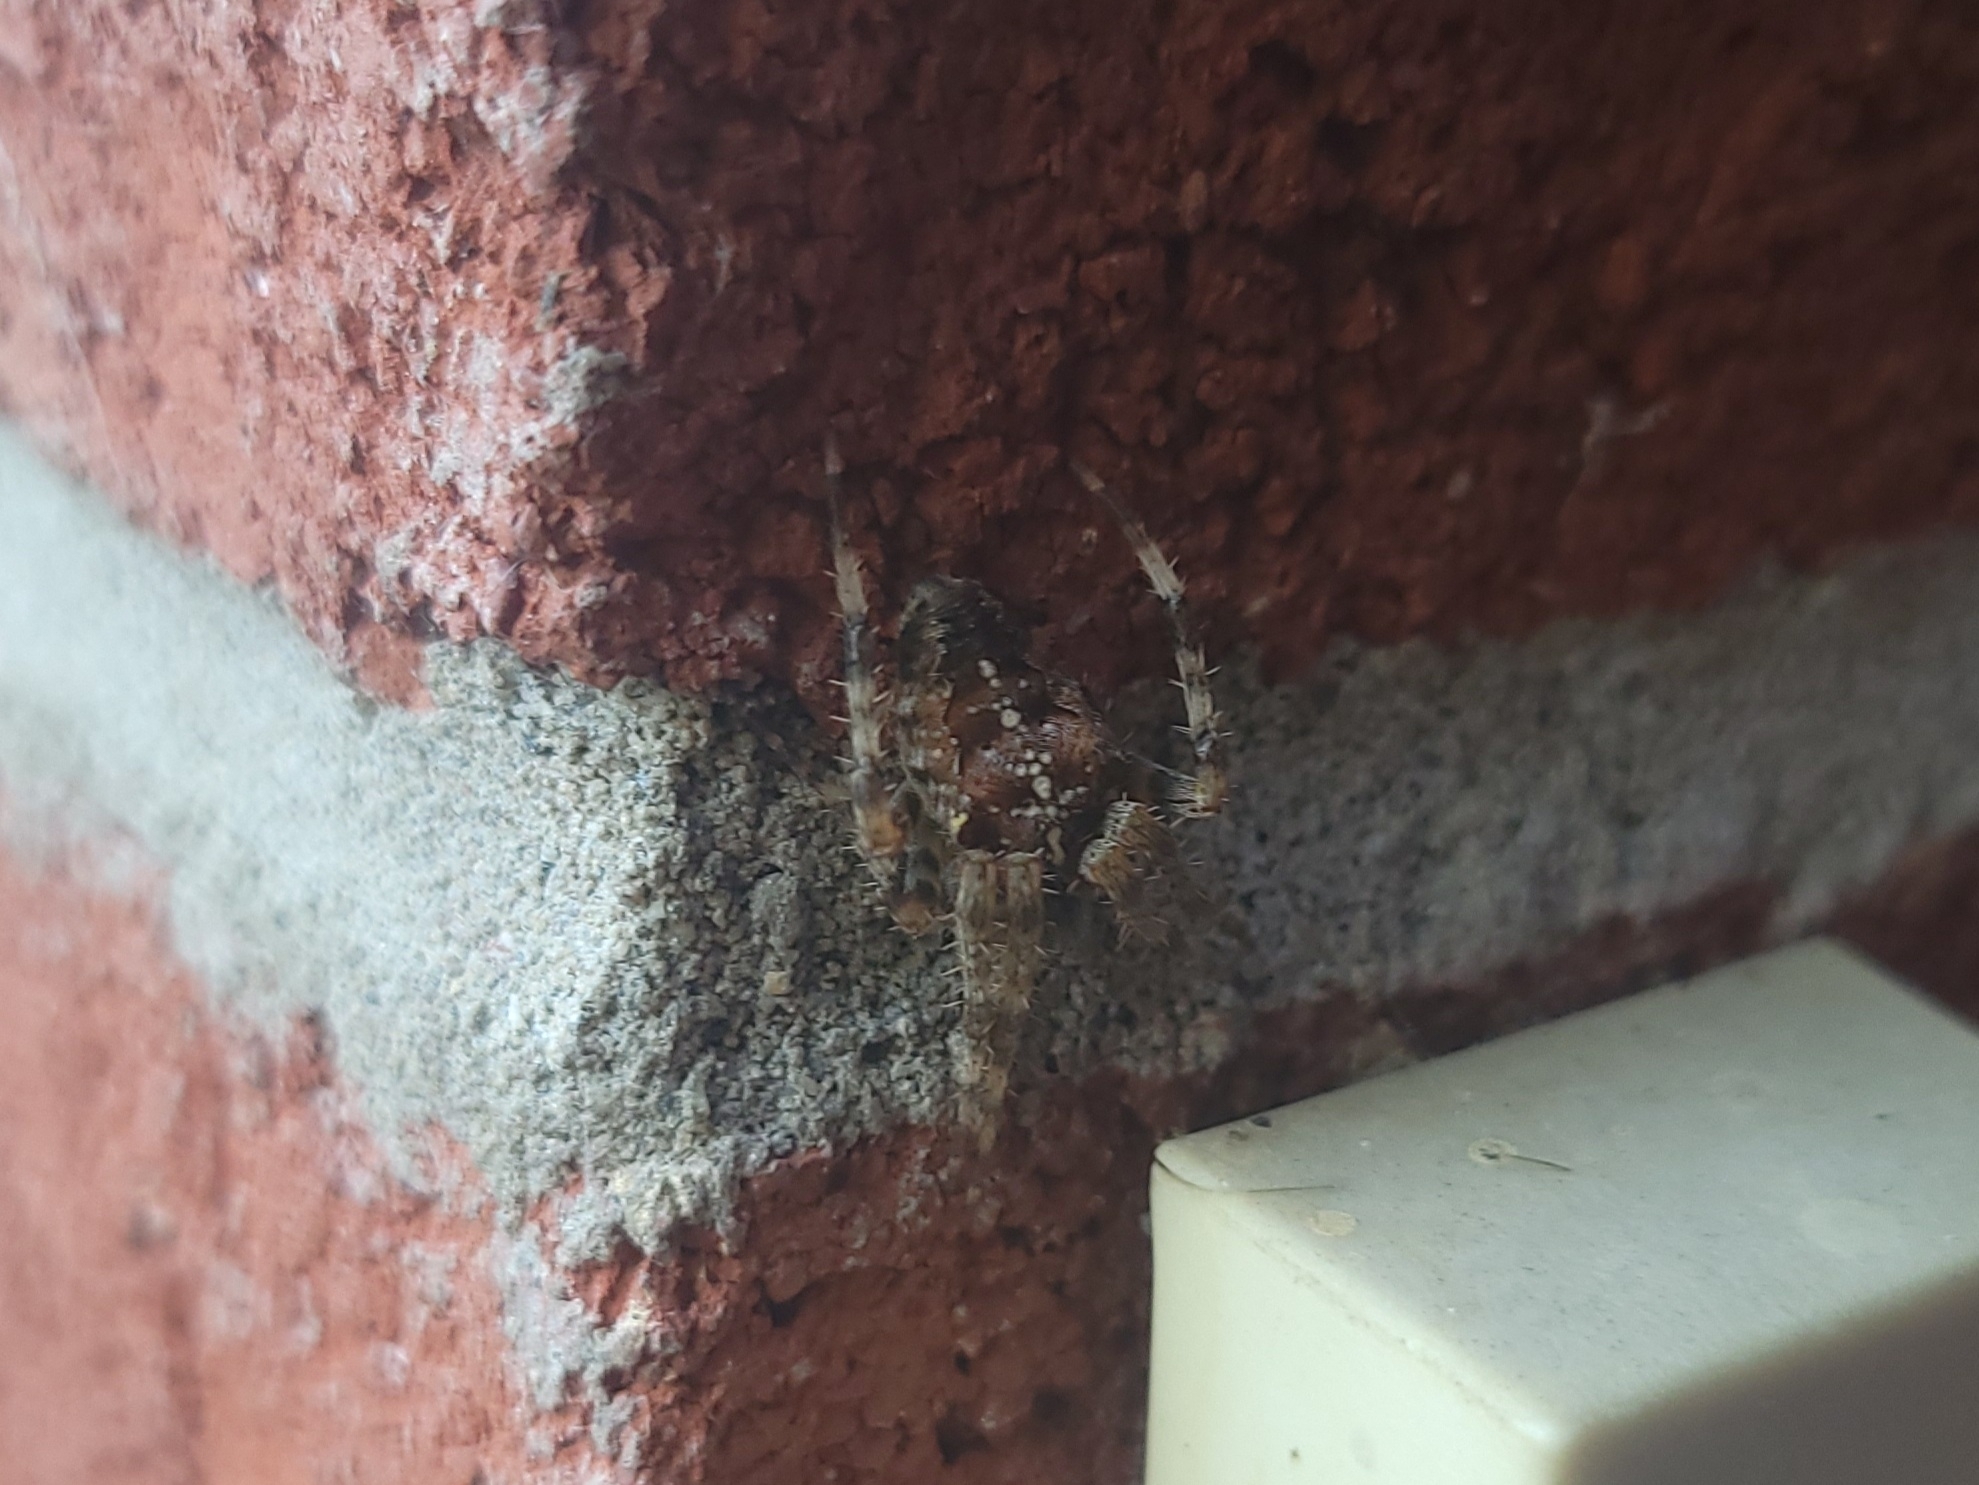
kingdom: Animalia
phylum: Arthropoda
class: Arachnida
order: Araneae
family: Araneidae
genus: Araneus
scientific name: Araneus diadematus
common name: Cross orbweaver
